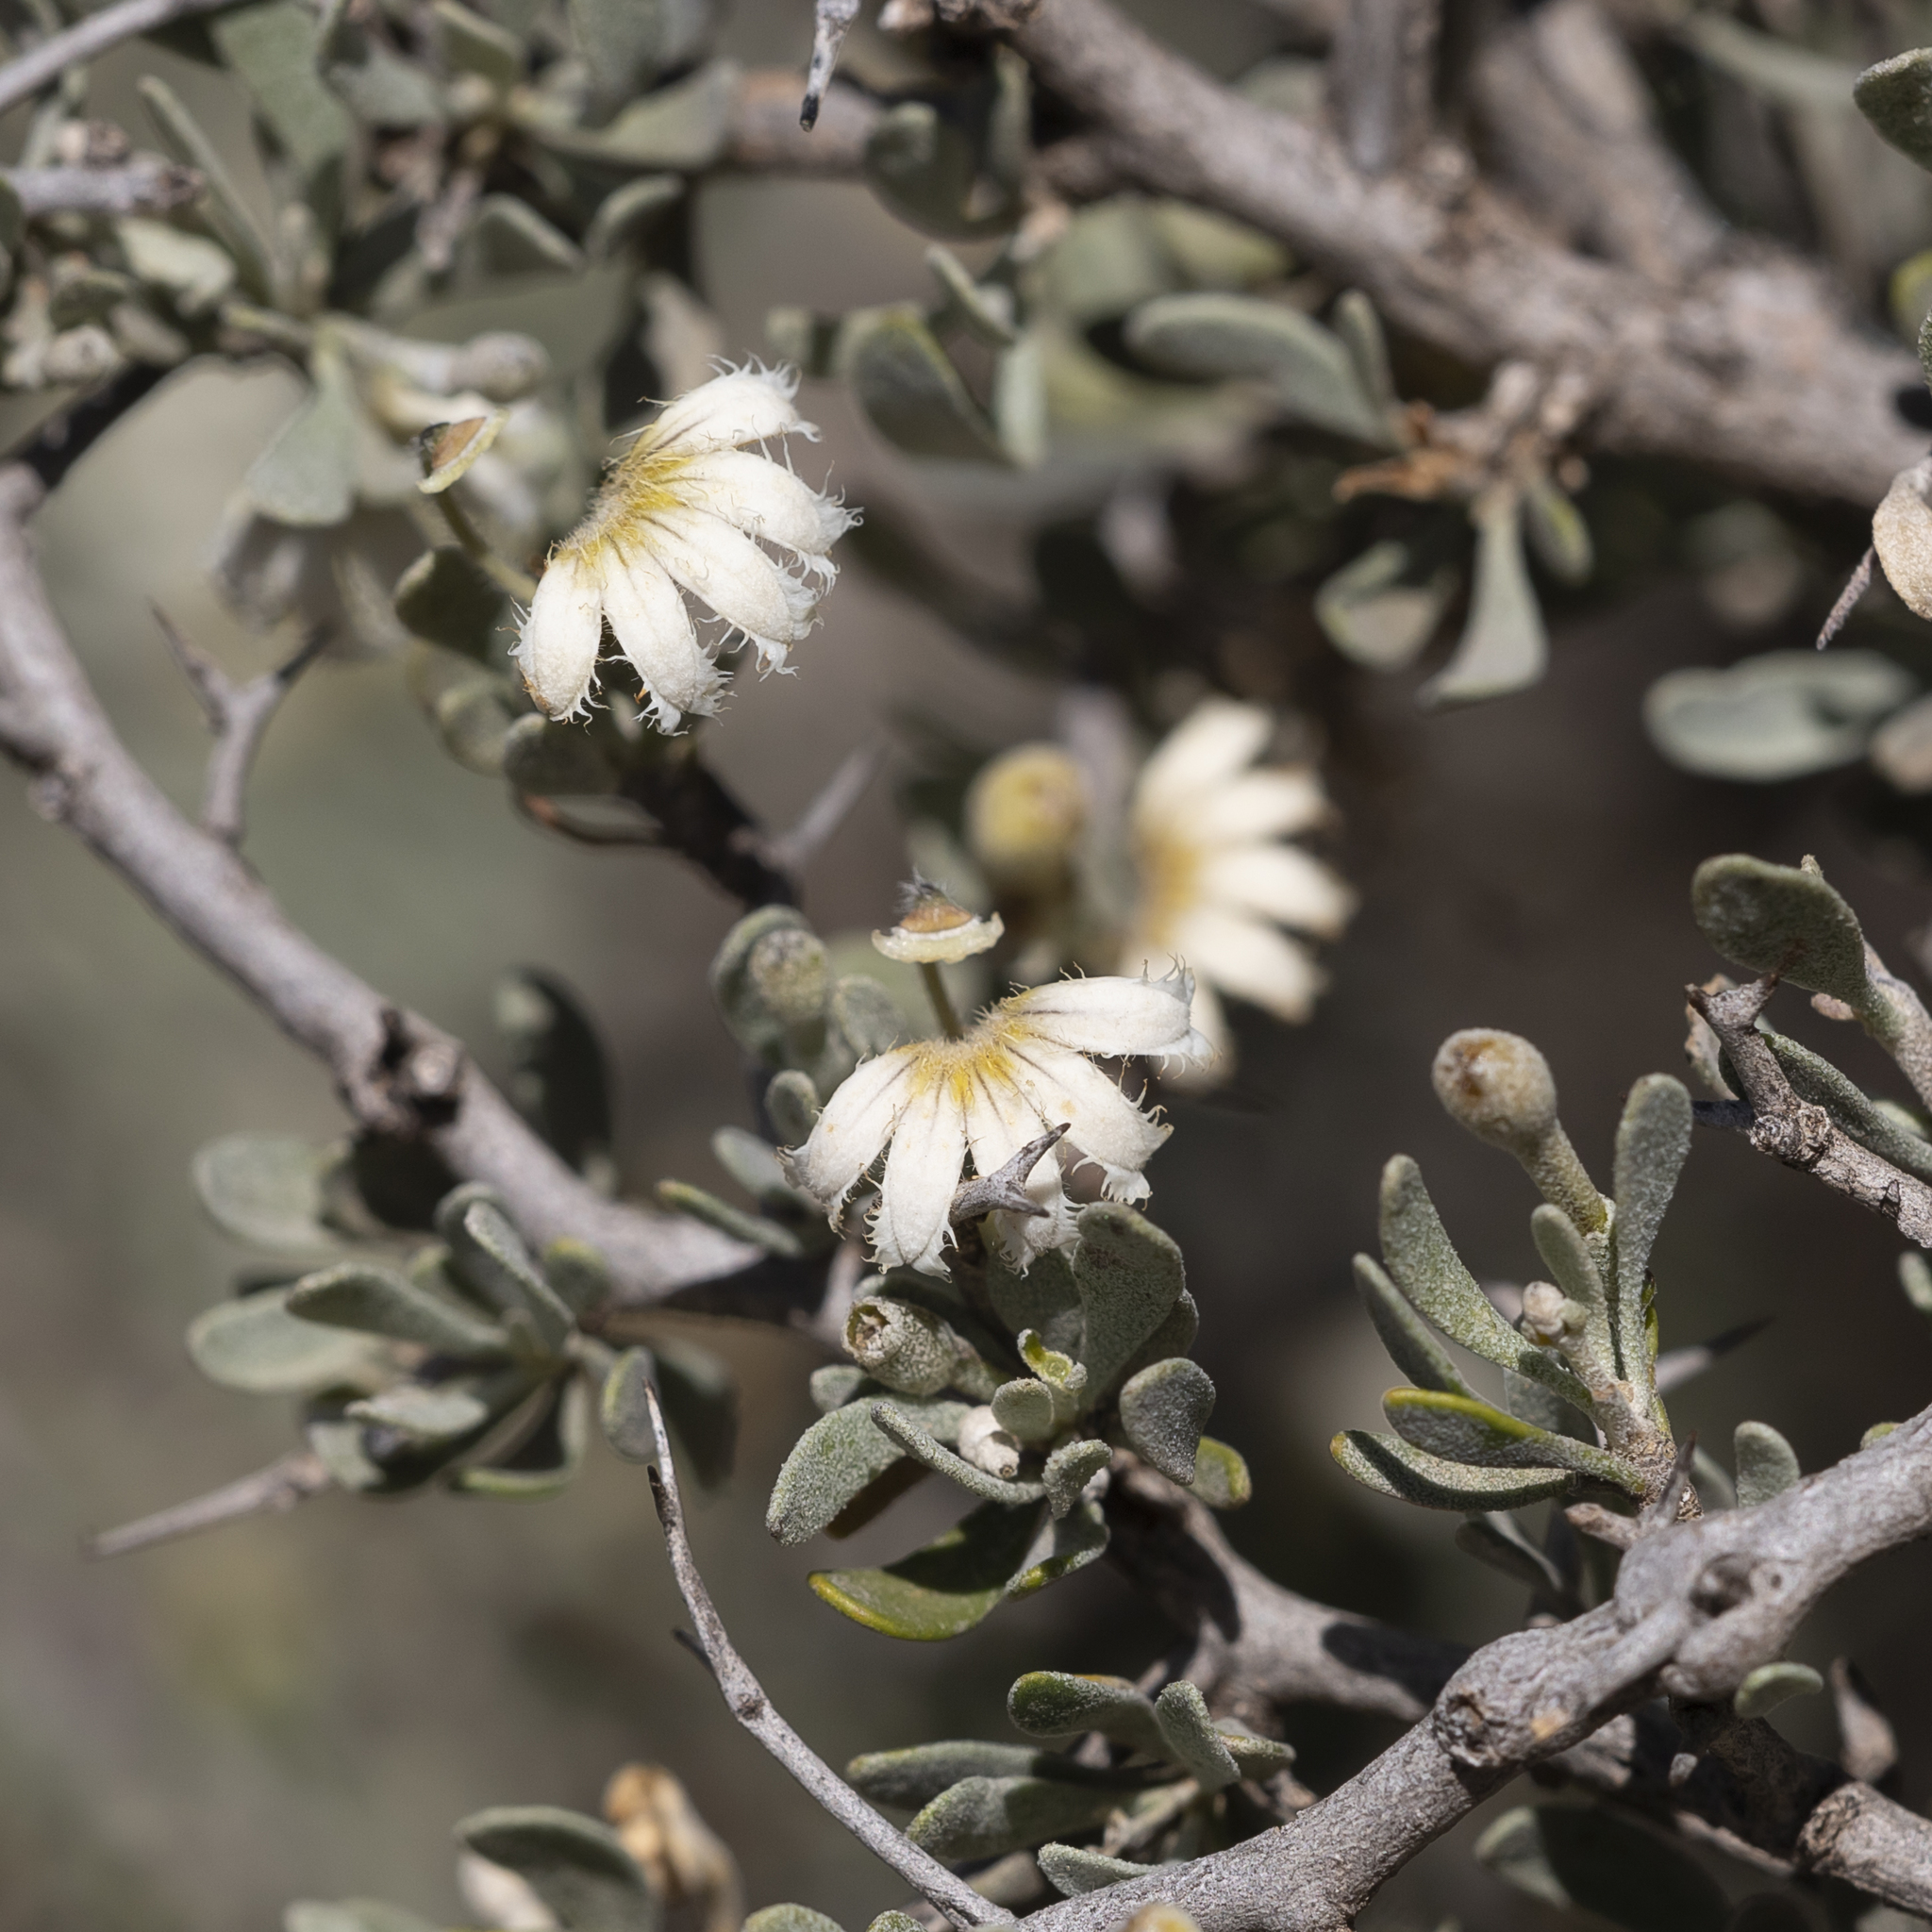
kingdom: Plantae
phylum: Tracheophyta
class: Magnoliopsida
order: Asterales
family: Goodeniaceae
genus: Scaevola
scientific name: Scaevola spinescens
